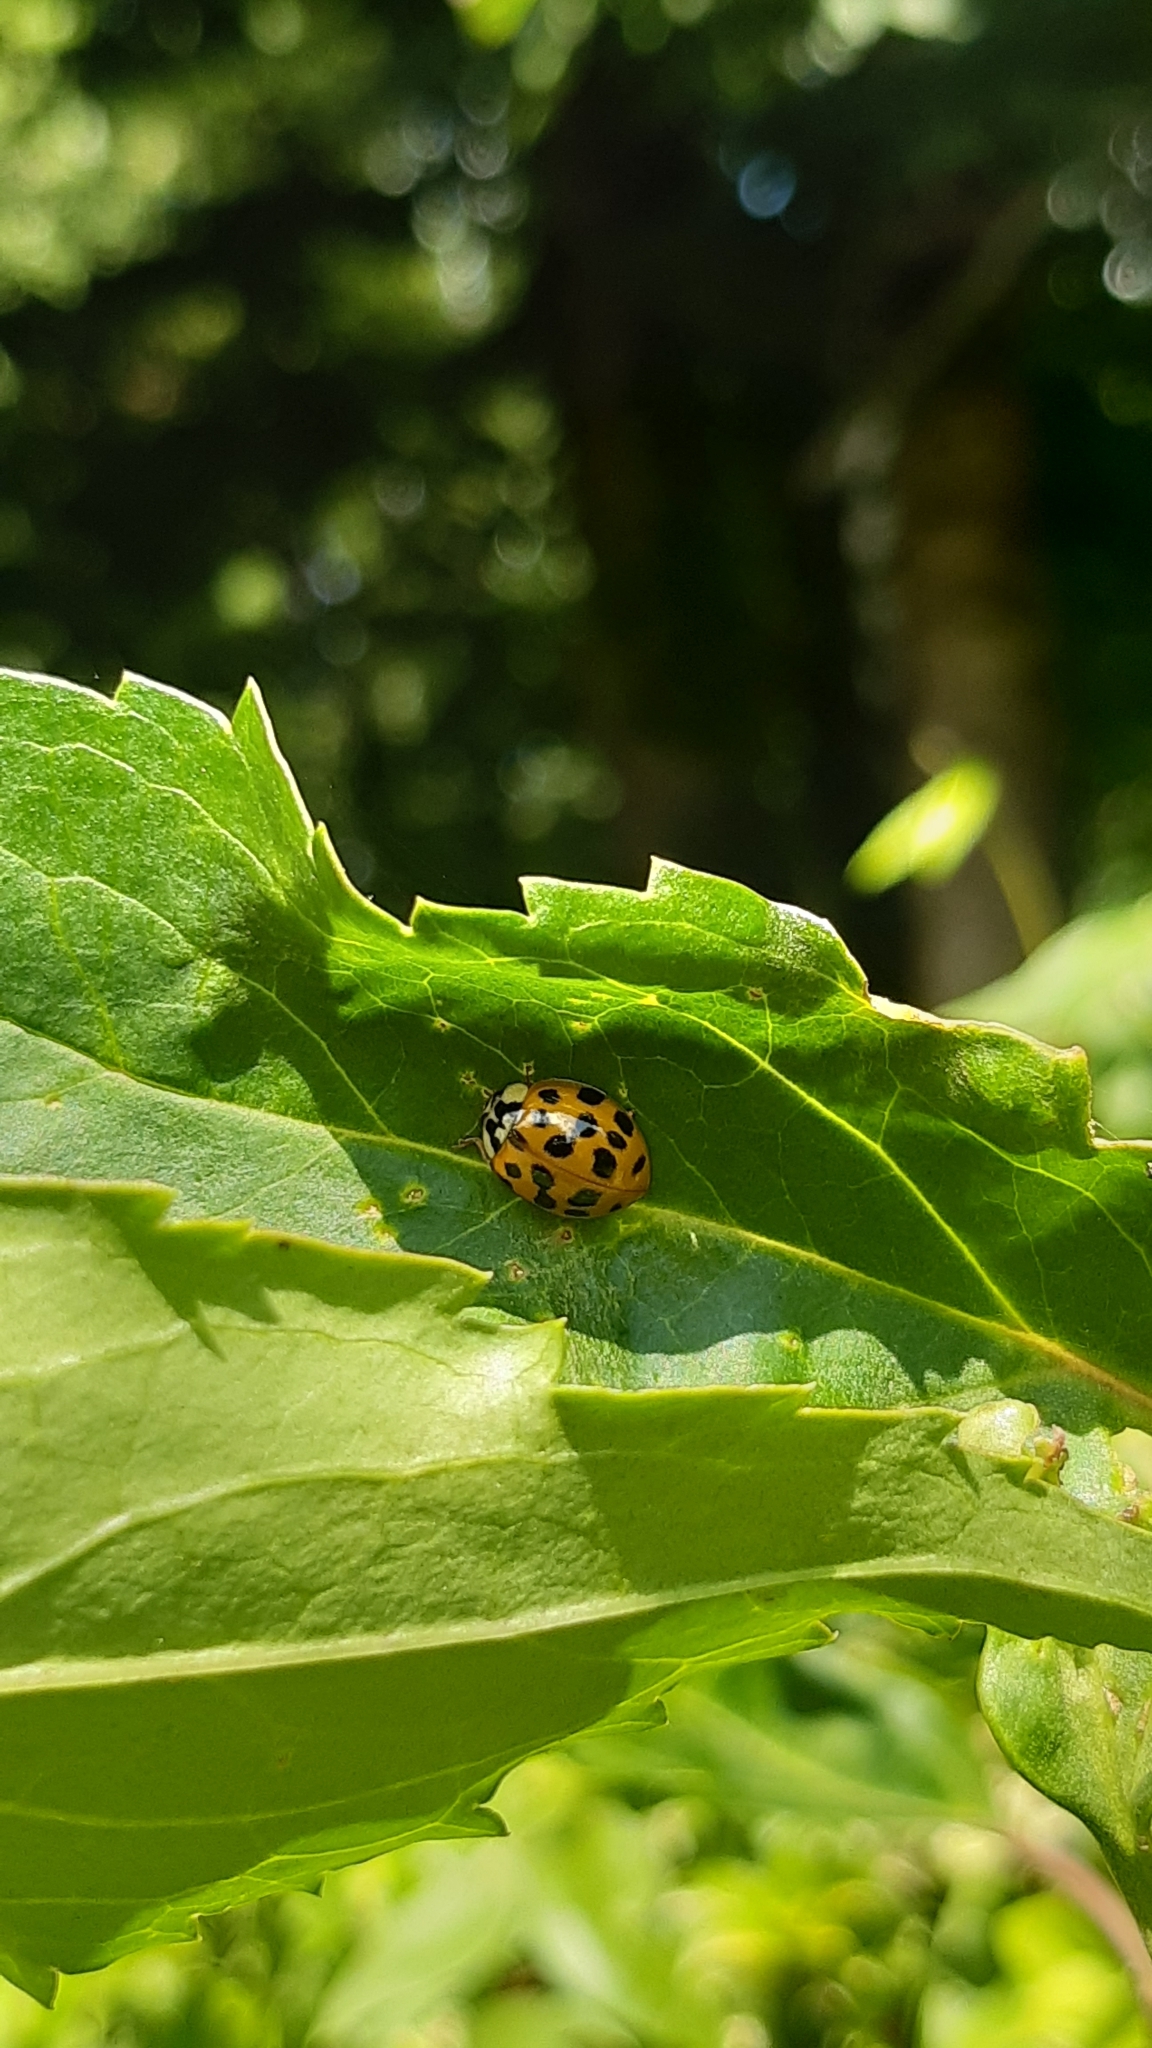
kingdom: Animalia
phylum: Arthropoda
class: Insecta
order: Coleoptera
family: Coccinellidae
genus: Harmonia
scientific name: Harmonia axyridis
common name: Harlequin ladybird
